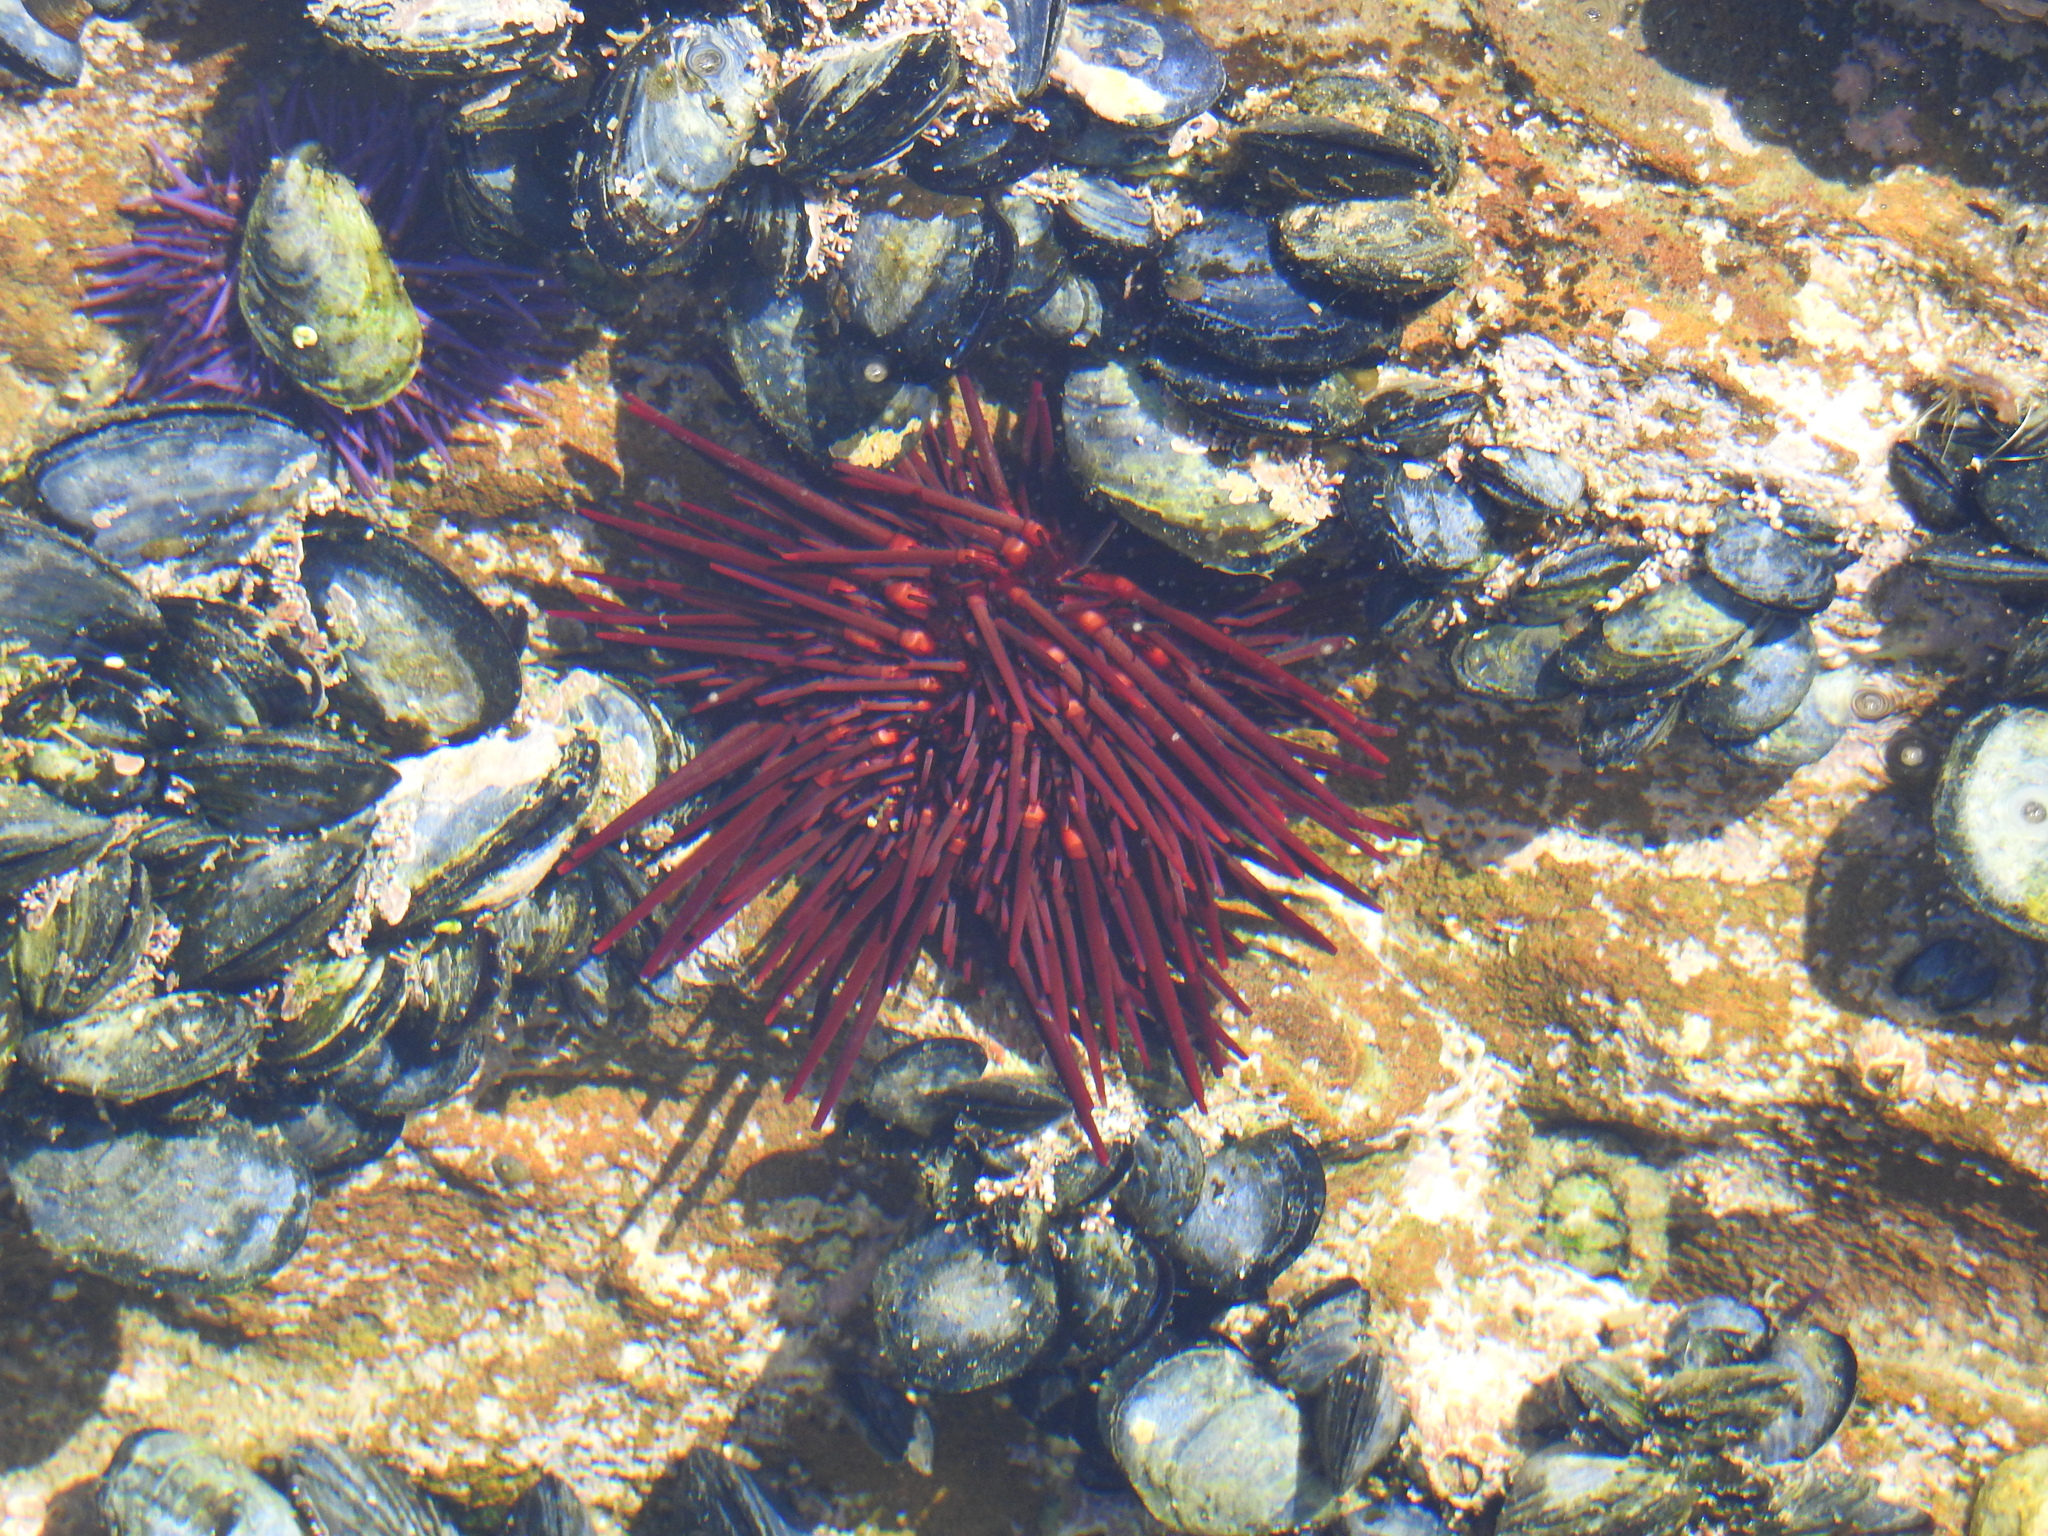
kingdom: Animalia
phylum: Echinodermata
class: Echinoidea
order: Camarodonta
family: Strongylocentrotidae
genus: Mesocentrotus
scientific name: Mesocentrotus franciscanus
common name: Red sea urchin
